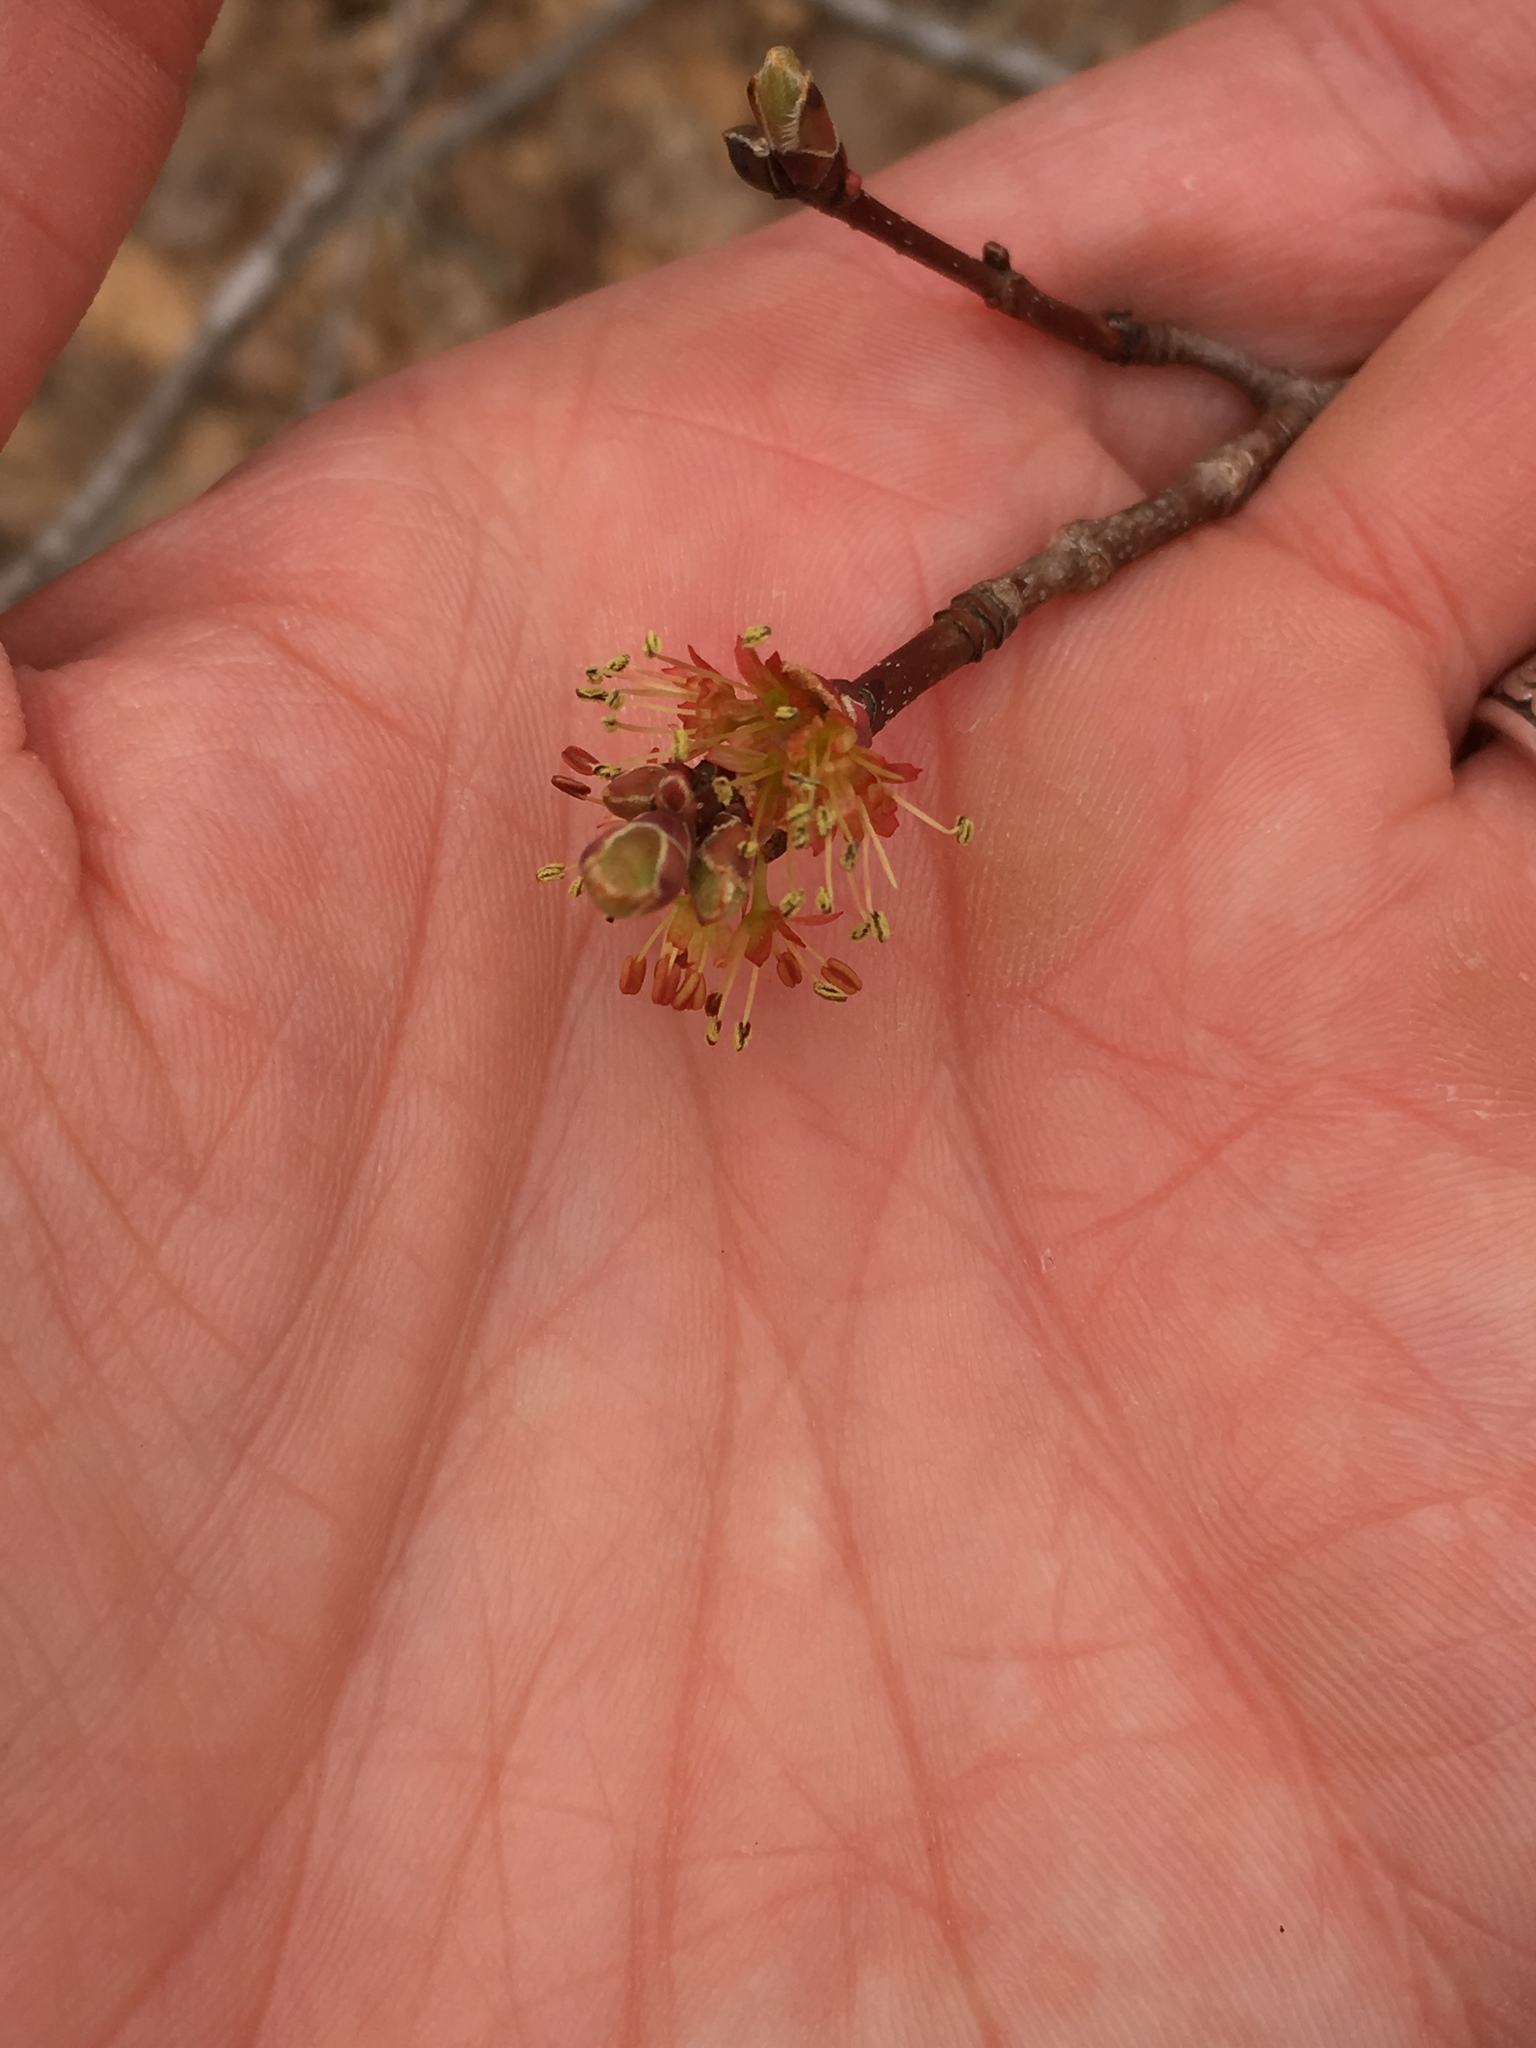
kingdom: Plantae
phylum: Tracheophyta
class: Magnoliopsida
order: Sapindales
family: Sapindaceae
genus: Acer
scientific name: Acer rubrum
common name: Red maple
